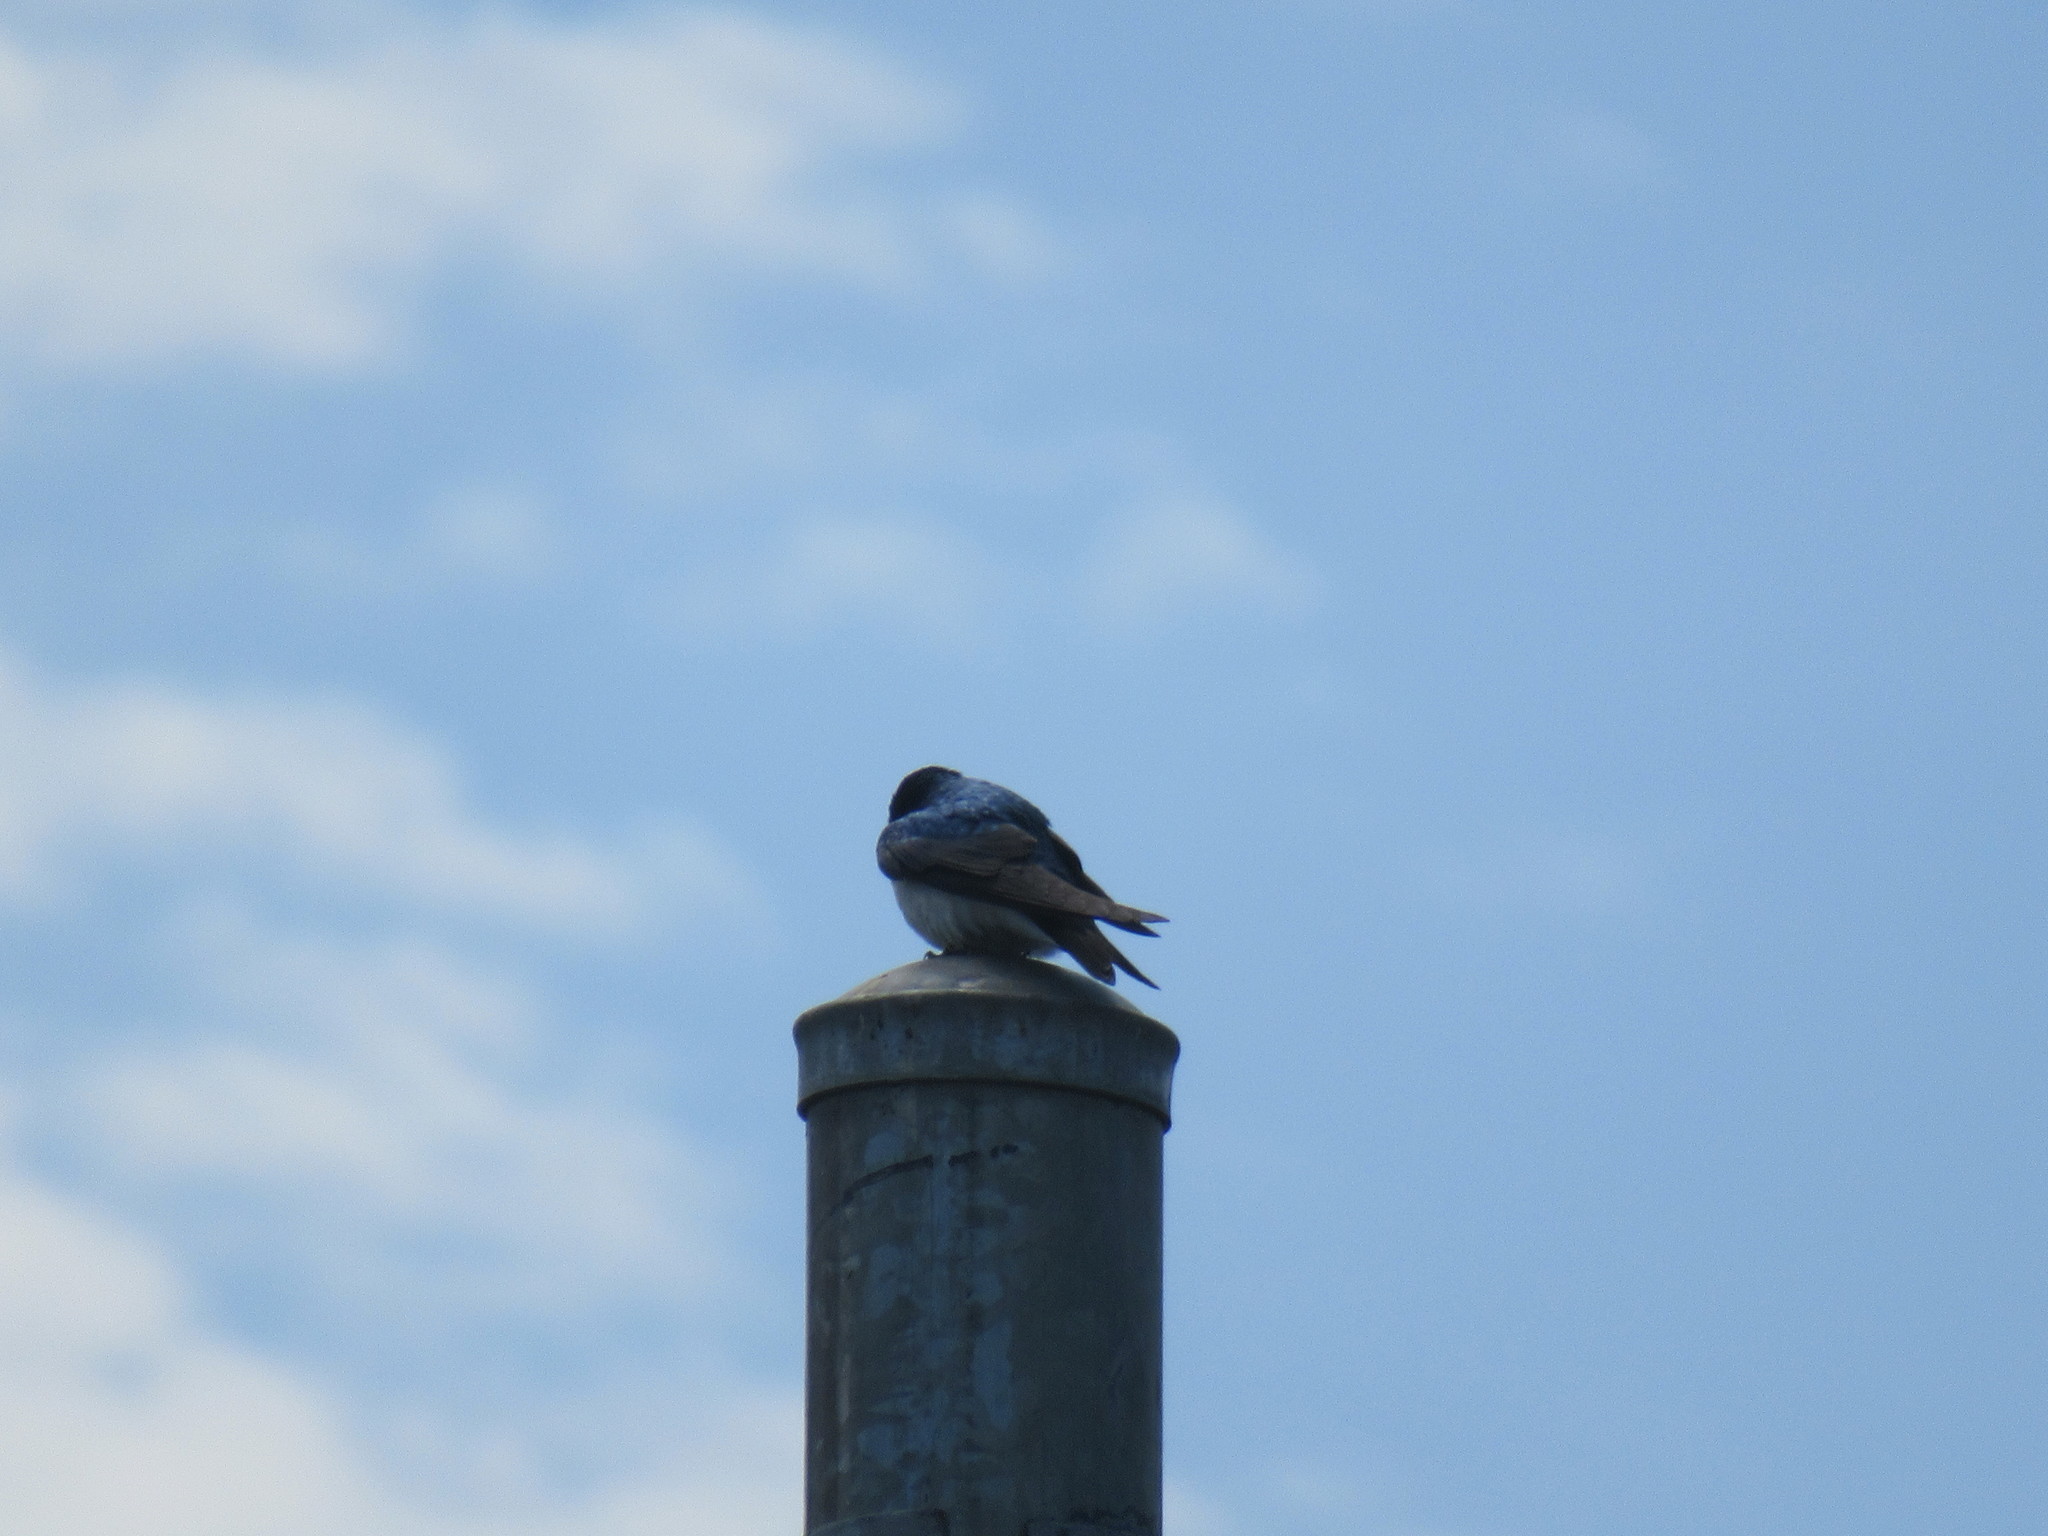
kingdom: Animalia
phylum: Chordata
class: Aves
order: Passeriformes
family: Hirundinidae
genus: Tachycineta
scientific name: Tachycineta bicolor
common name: Tree swallow
